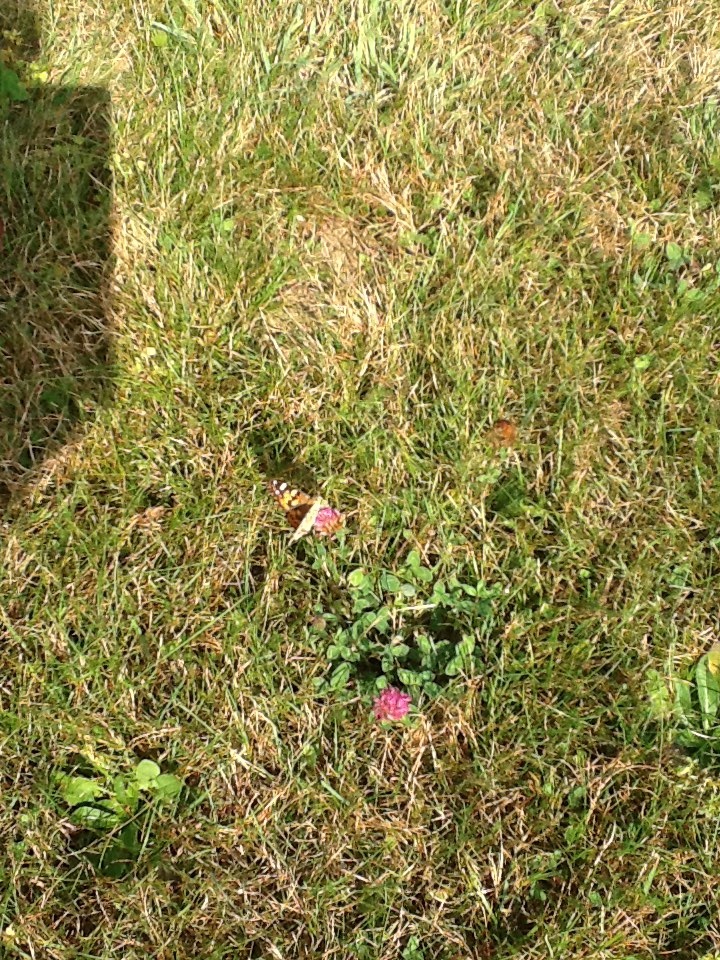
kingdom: Animalia
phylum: Arthropoda
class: Insecta
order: Lepidoptera
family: Nymphalidae
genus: Vanessa
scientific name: Vanessa cardui
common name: Painted lady
